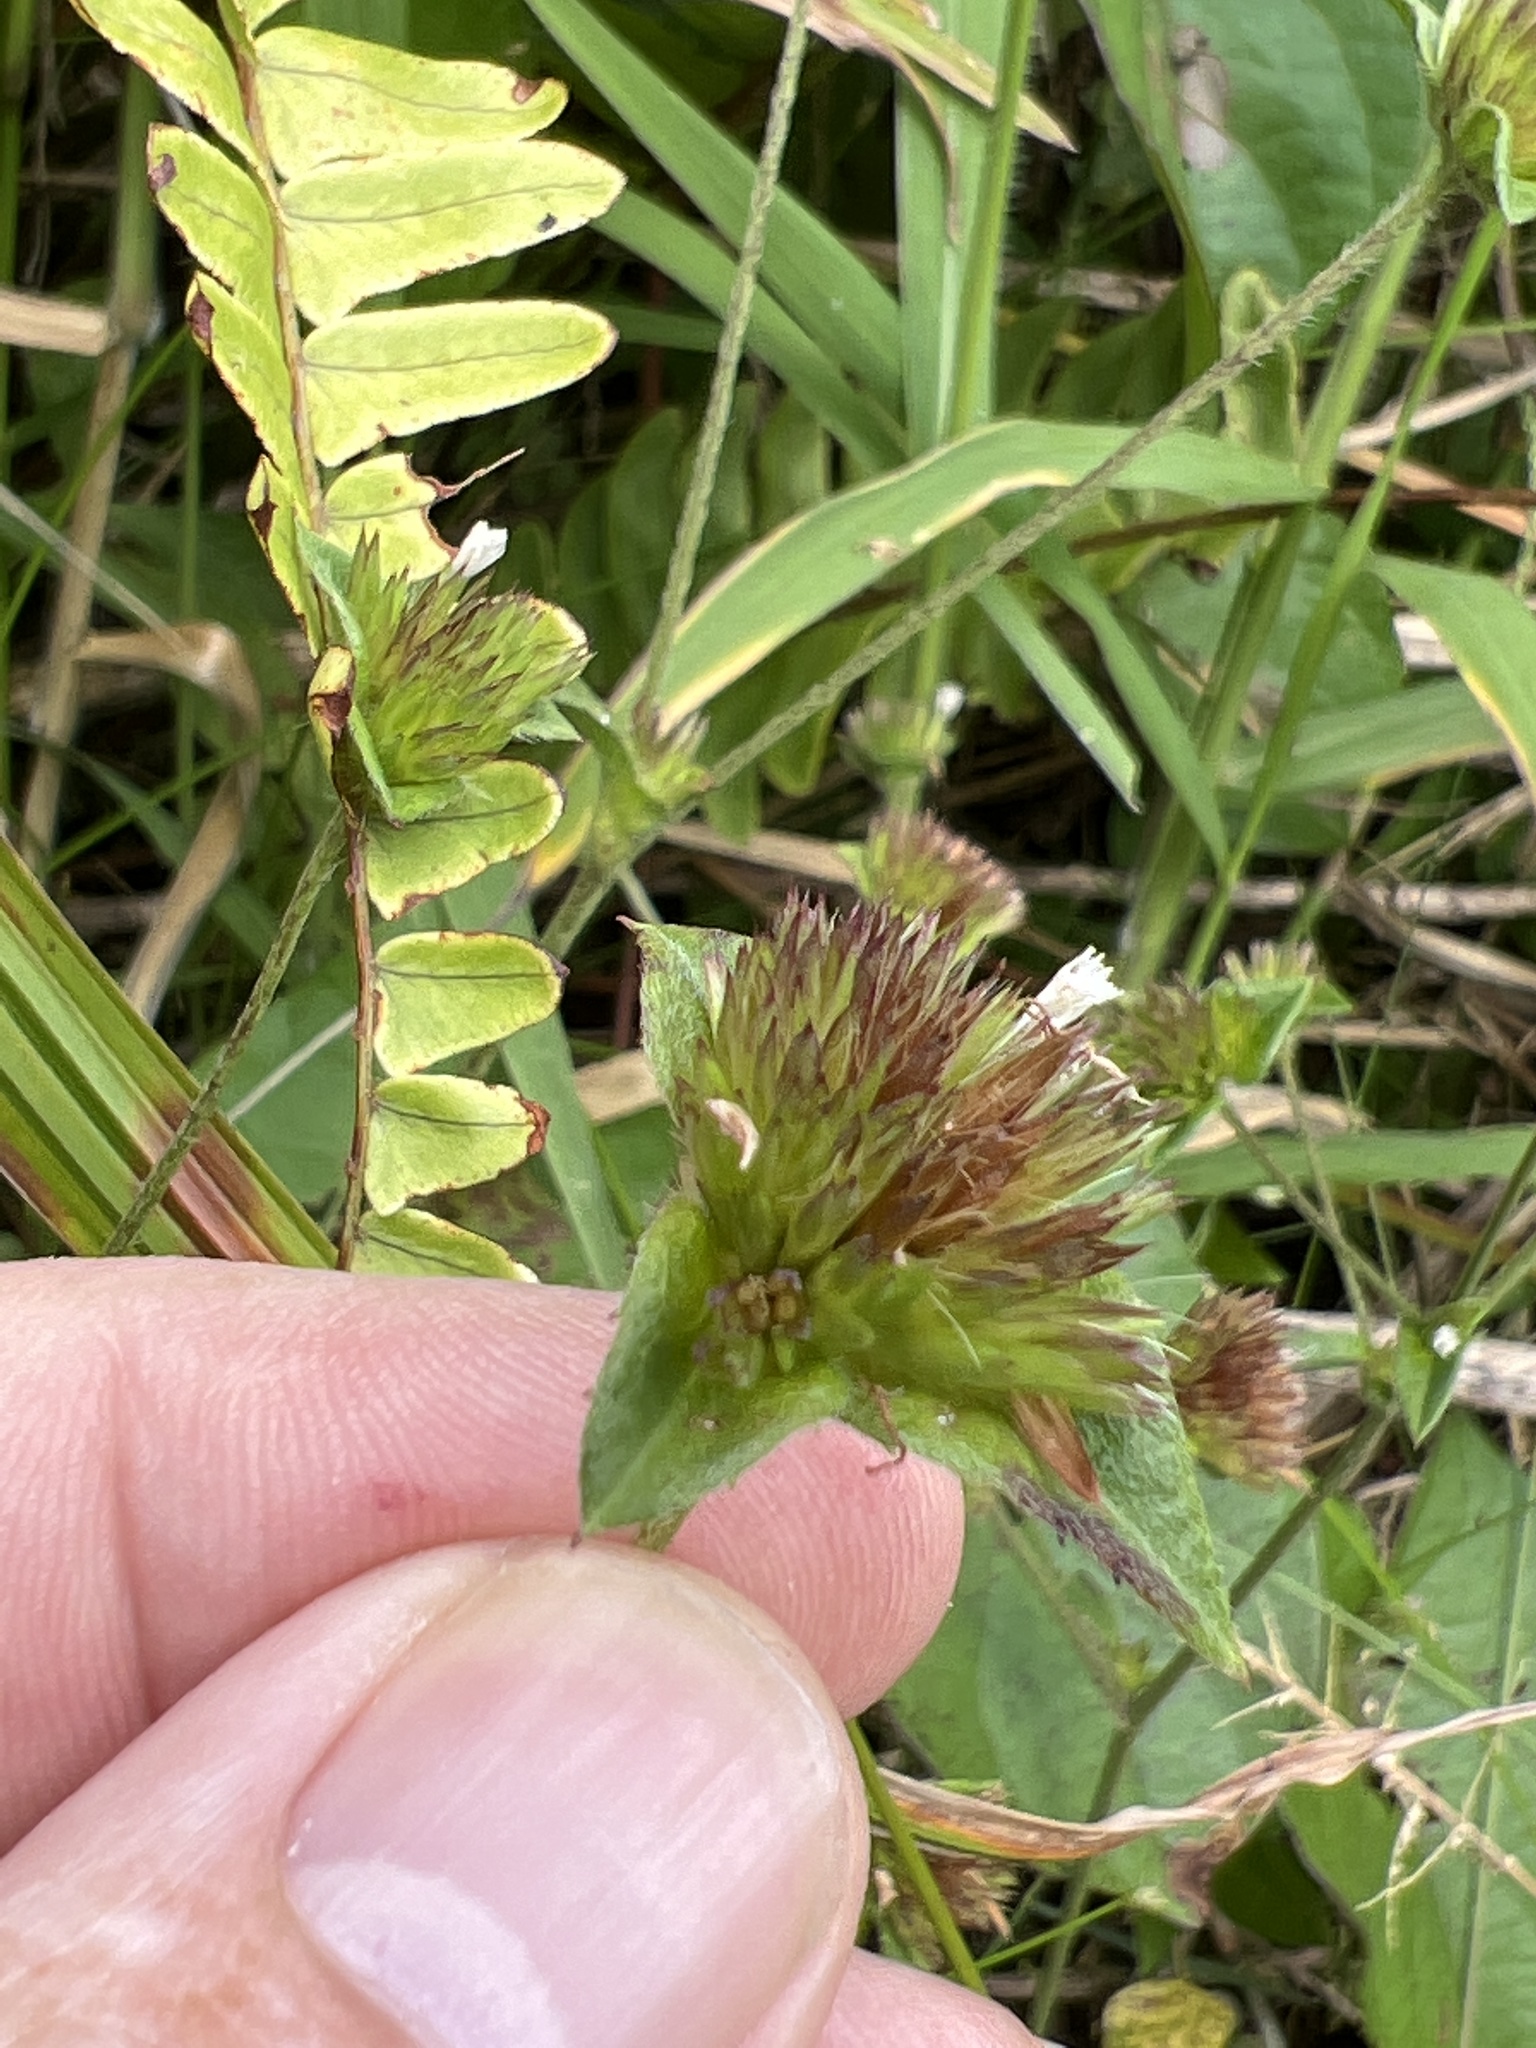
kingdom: Plantae
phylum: Tracheophyta
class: Magnoliopsida
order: Asterales
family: Asteraceae
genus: Elephantopus
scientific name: Elephantopus mollis
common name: Soft elephantsfoot
